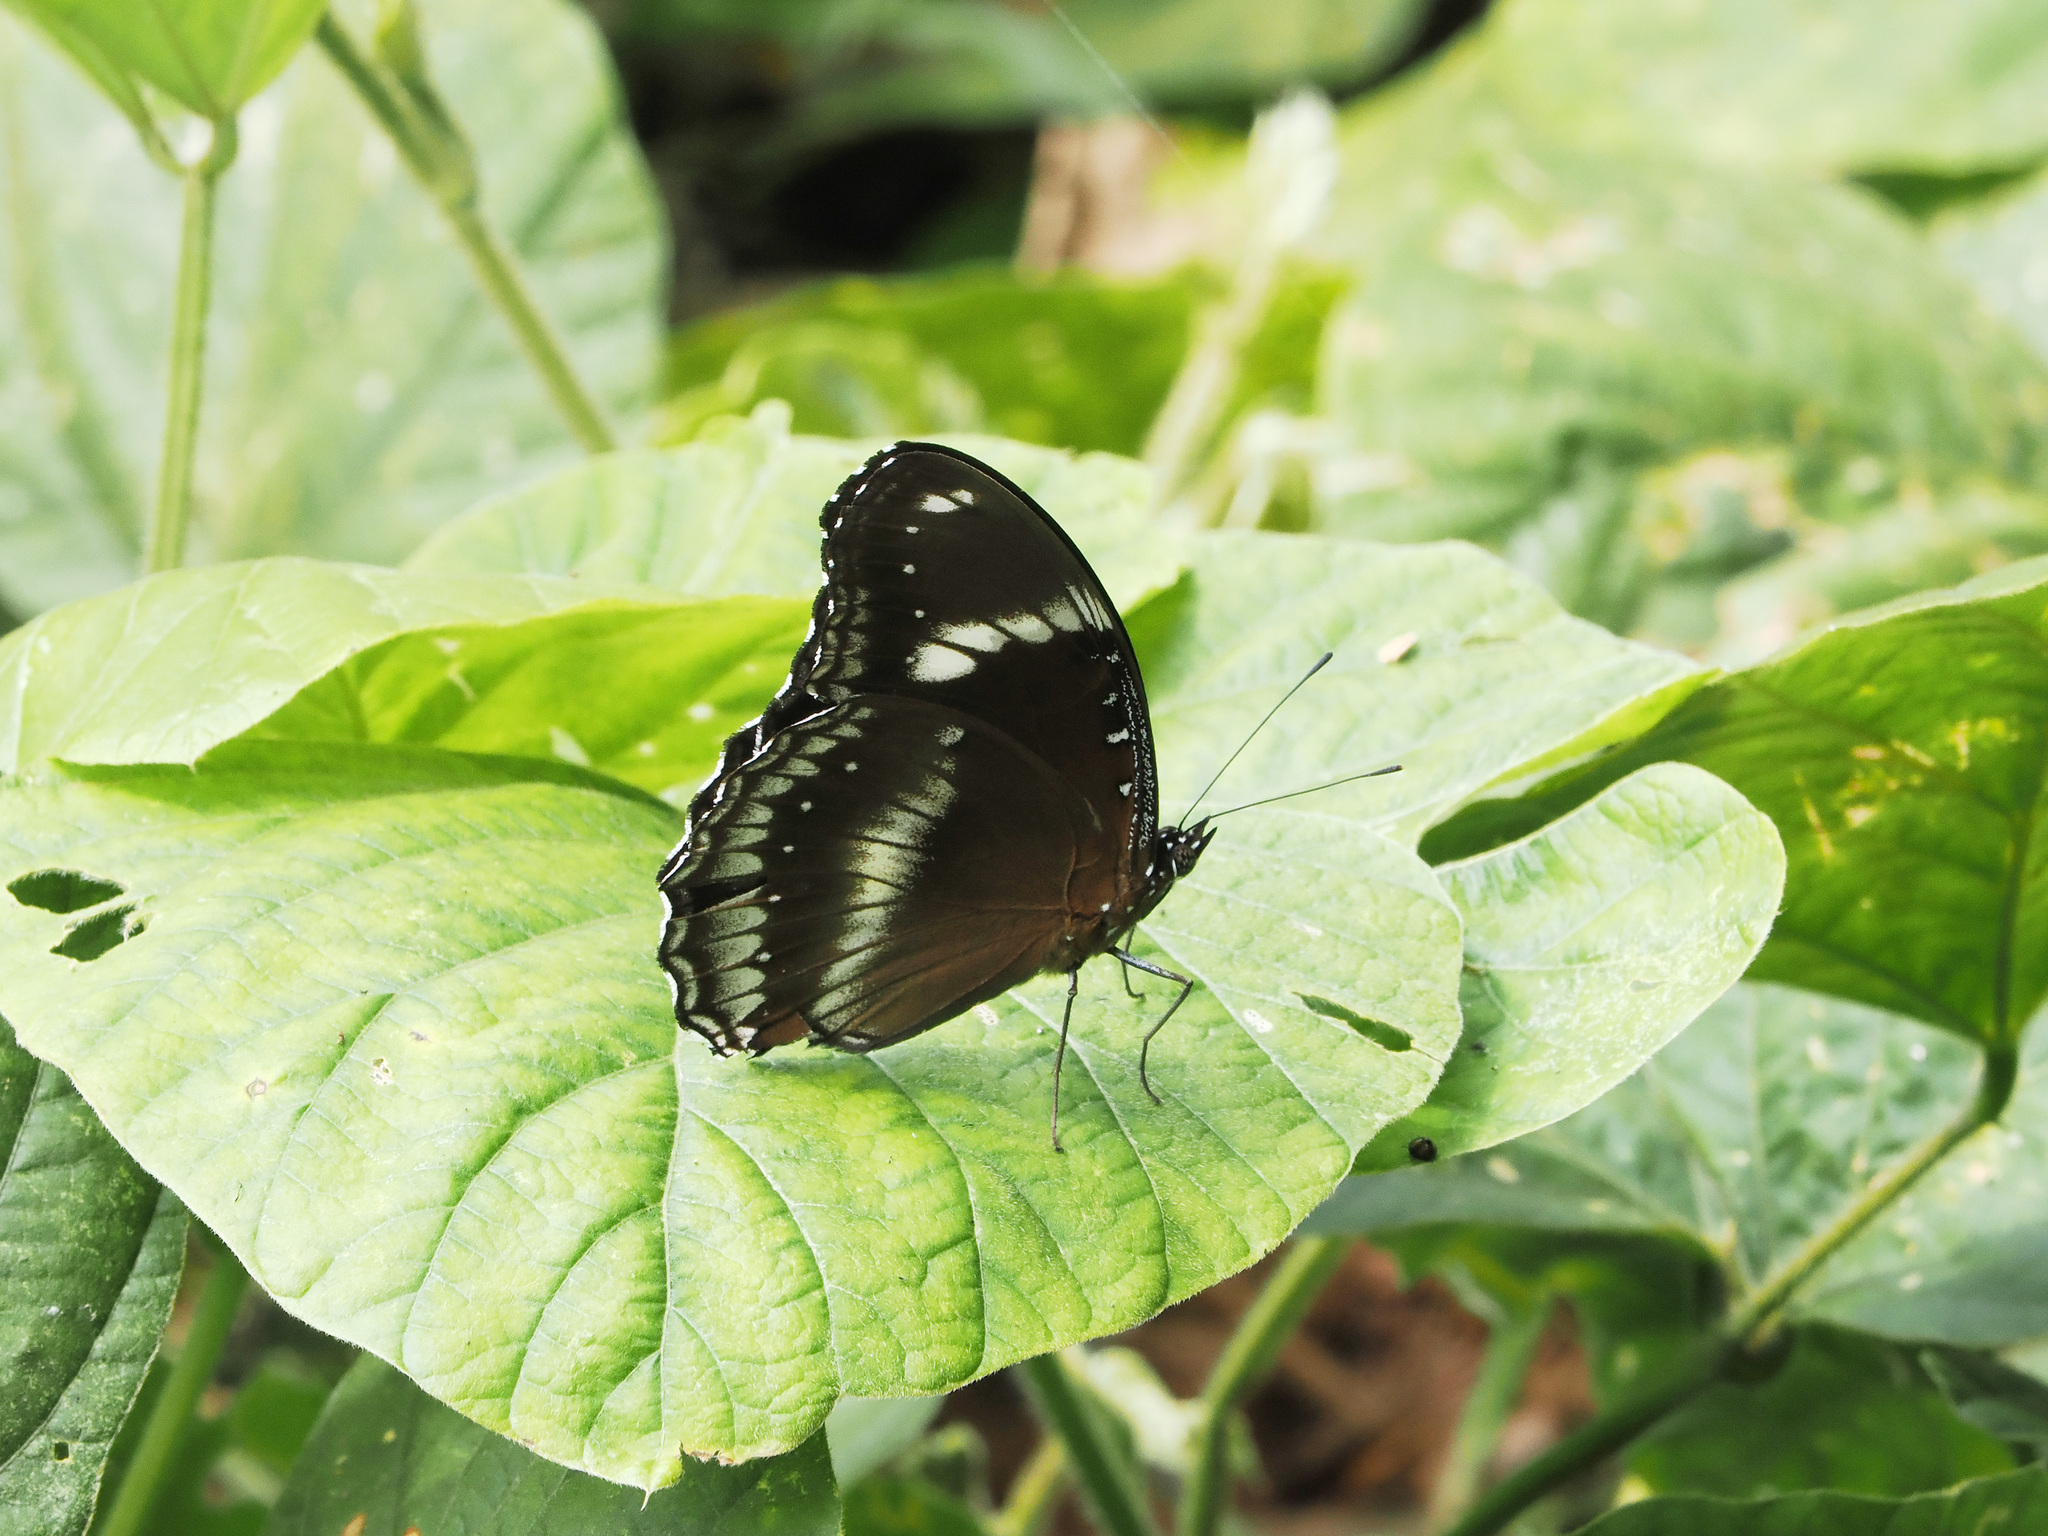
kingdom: Animalia
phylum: Arthropoda
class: Insecta
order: Lepidoptera
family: Nymphalidae
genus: Hypolimnas
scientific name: Hypolimnas bolina
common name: Great eggfly
